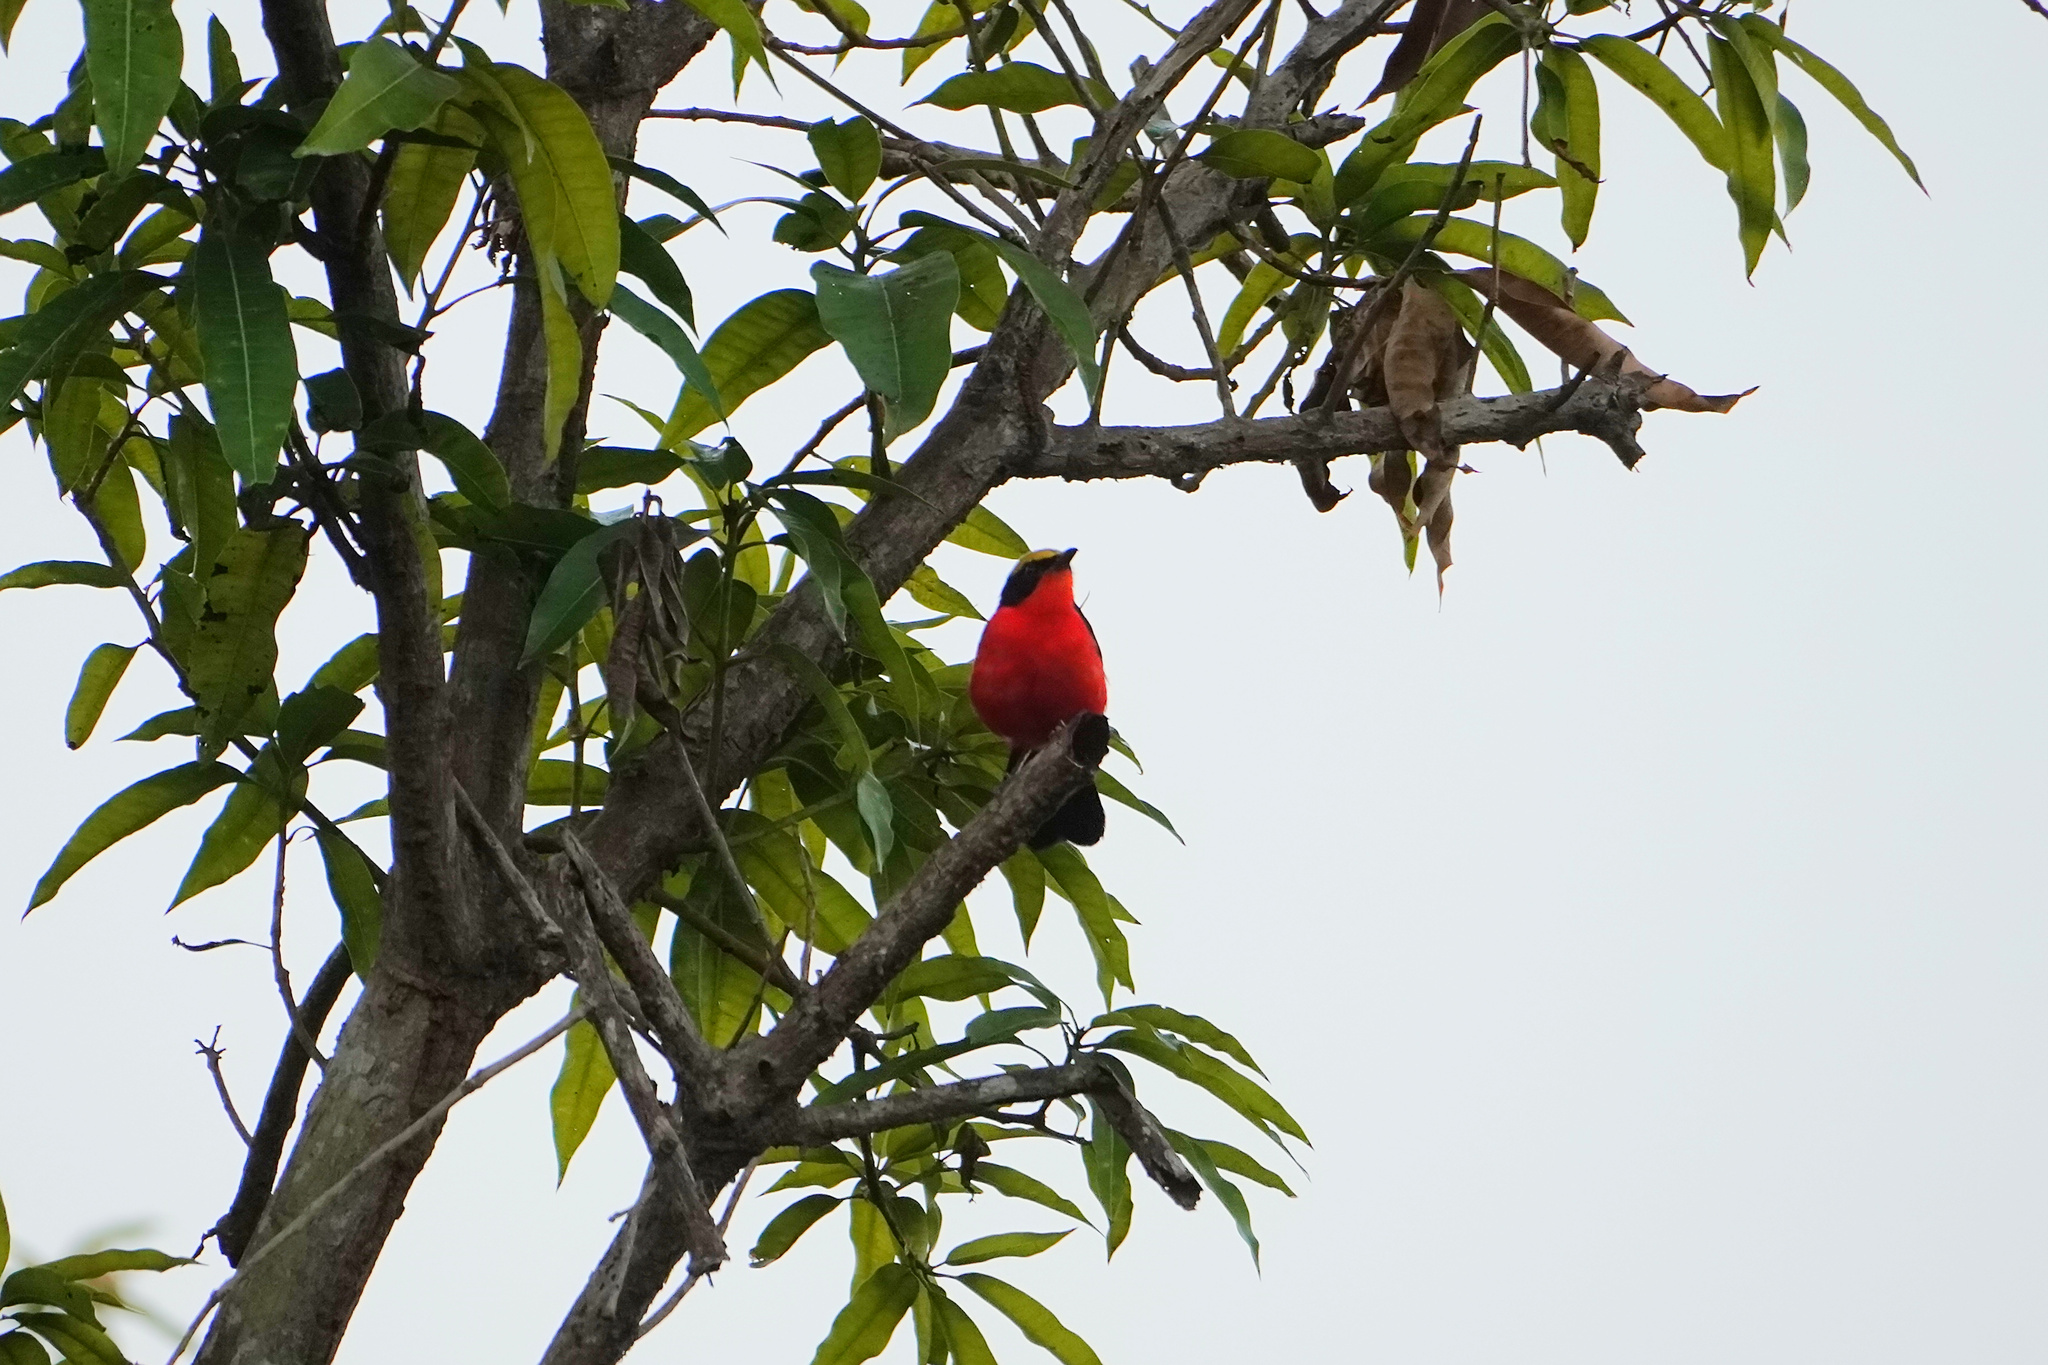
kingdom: Animalia
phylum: Chordata
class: Aves
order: Passeriformes
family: Malaconotidae
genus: Laniarius
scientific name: Laniarius barbarus
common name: Yellow-crowned gonolek
